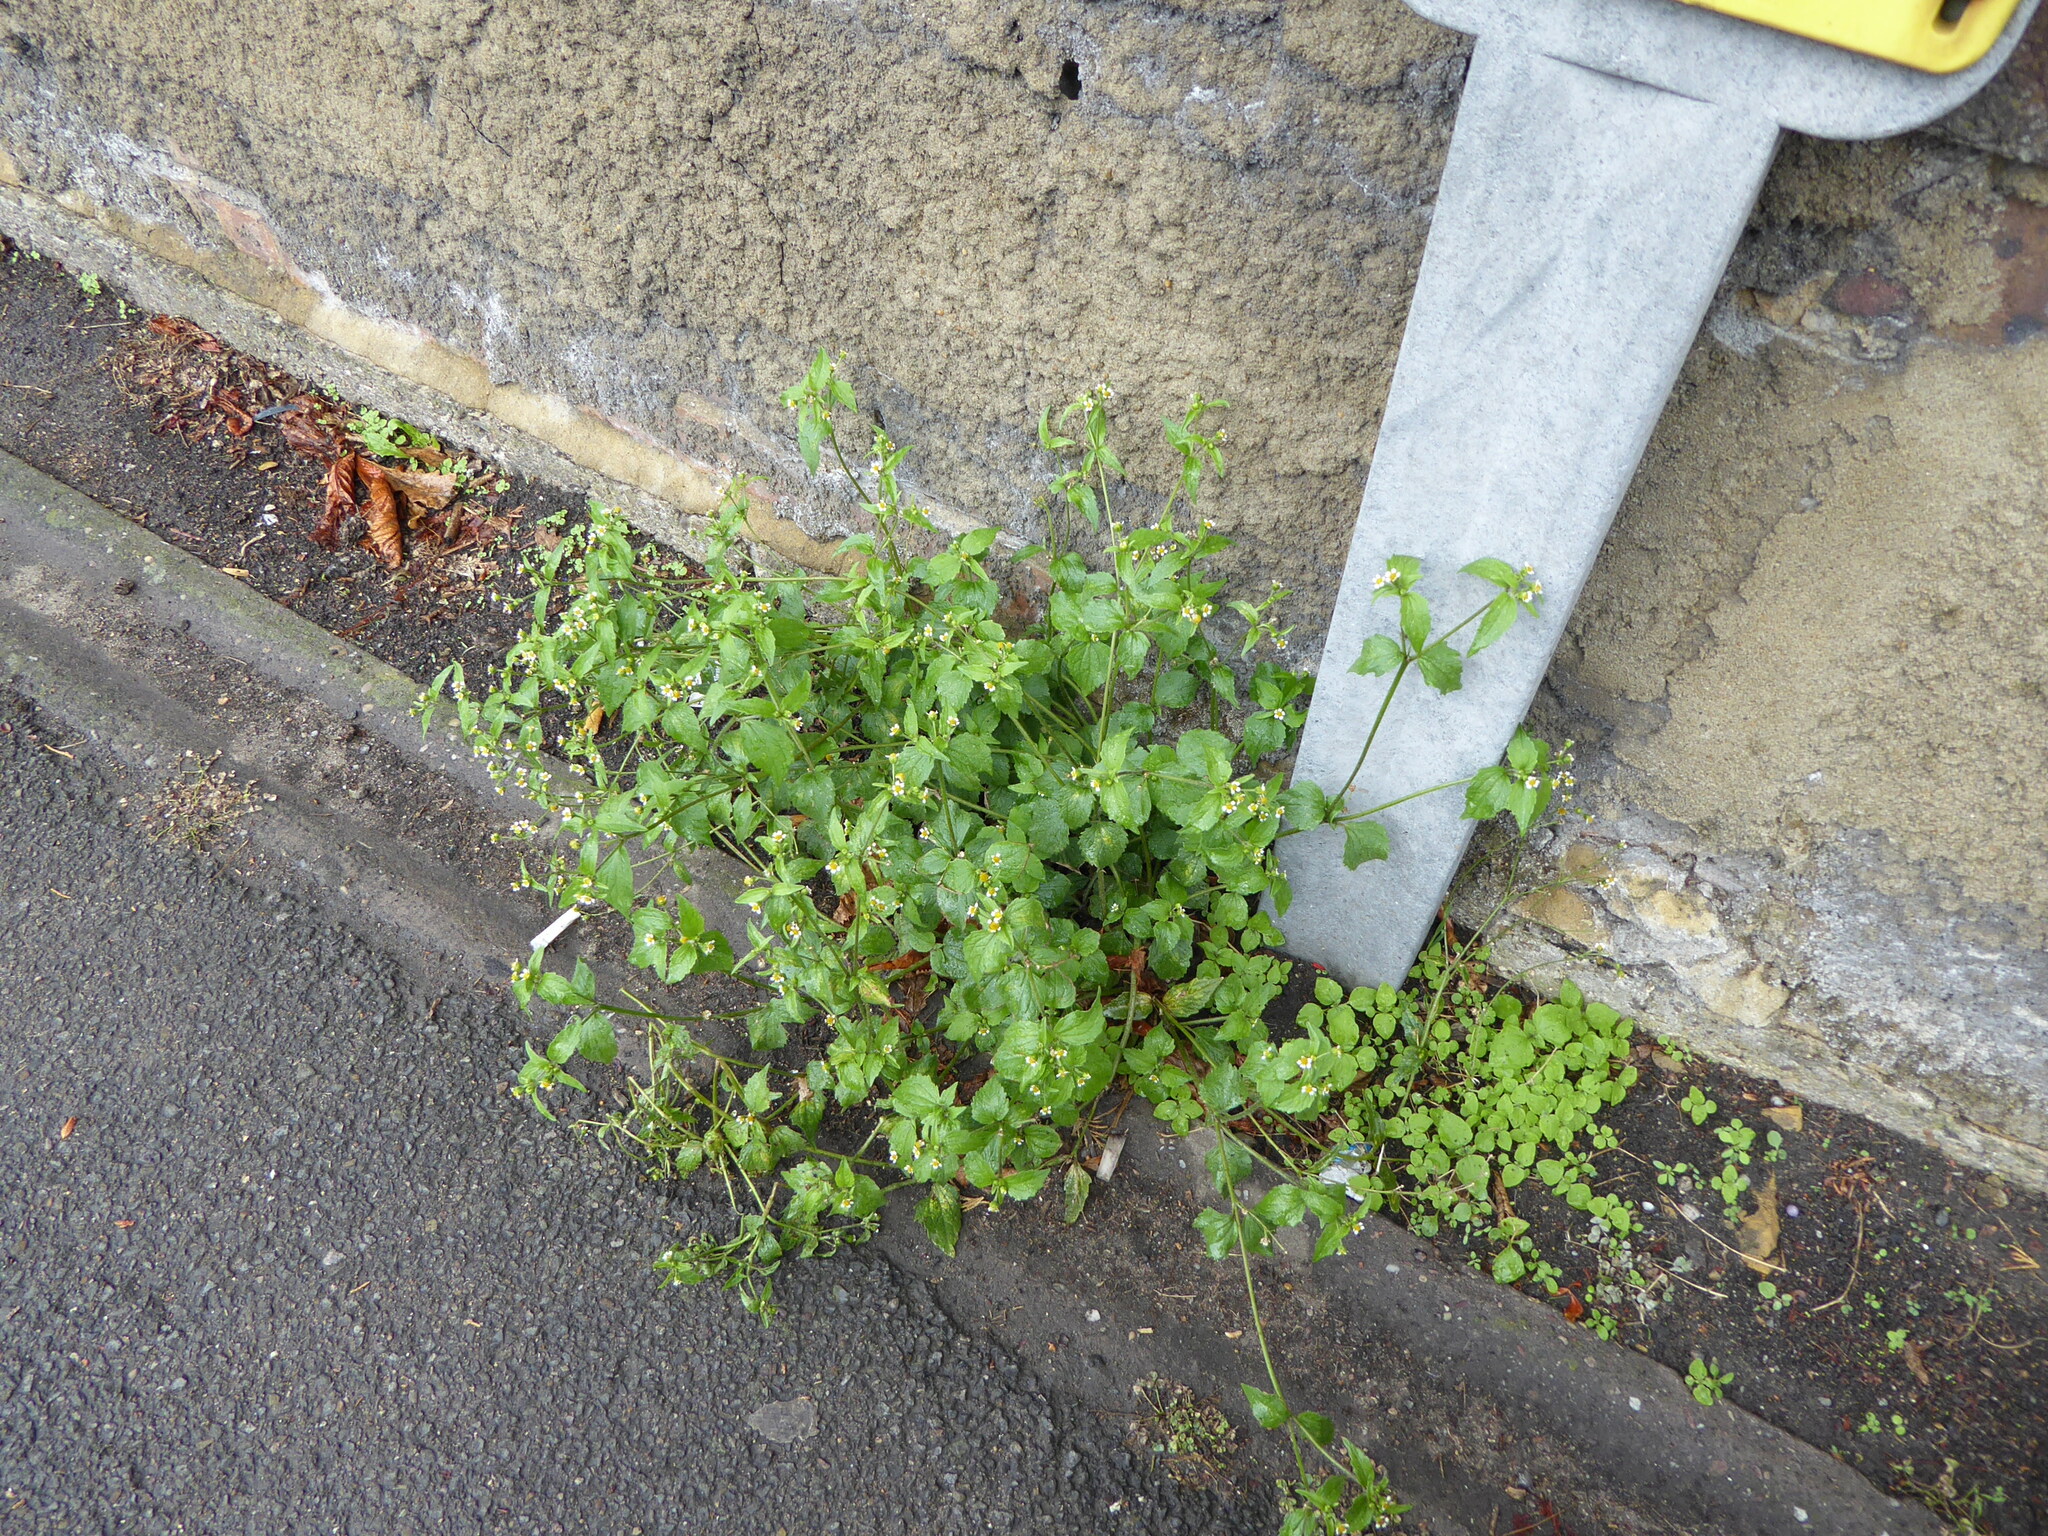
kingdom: Plantae
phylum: Tracheophyta
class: Magnoliopsida
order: Asterales
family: Asteraceae
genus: Galinsoga
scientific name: Galinsoga quadriradiata
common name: Shaggy soldier
